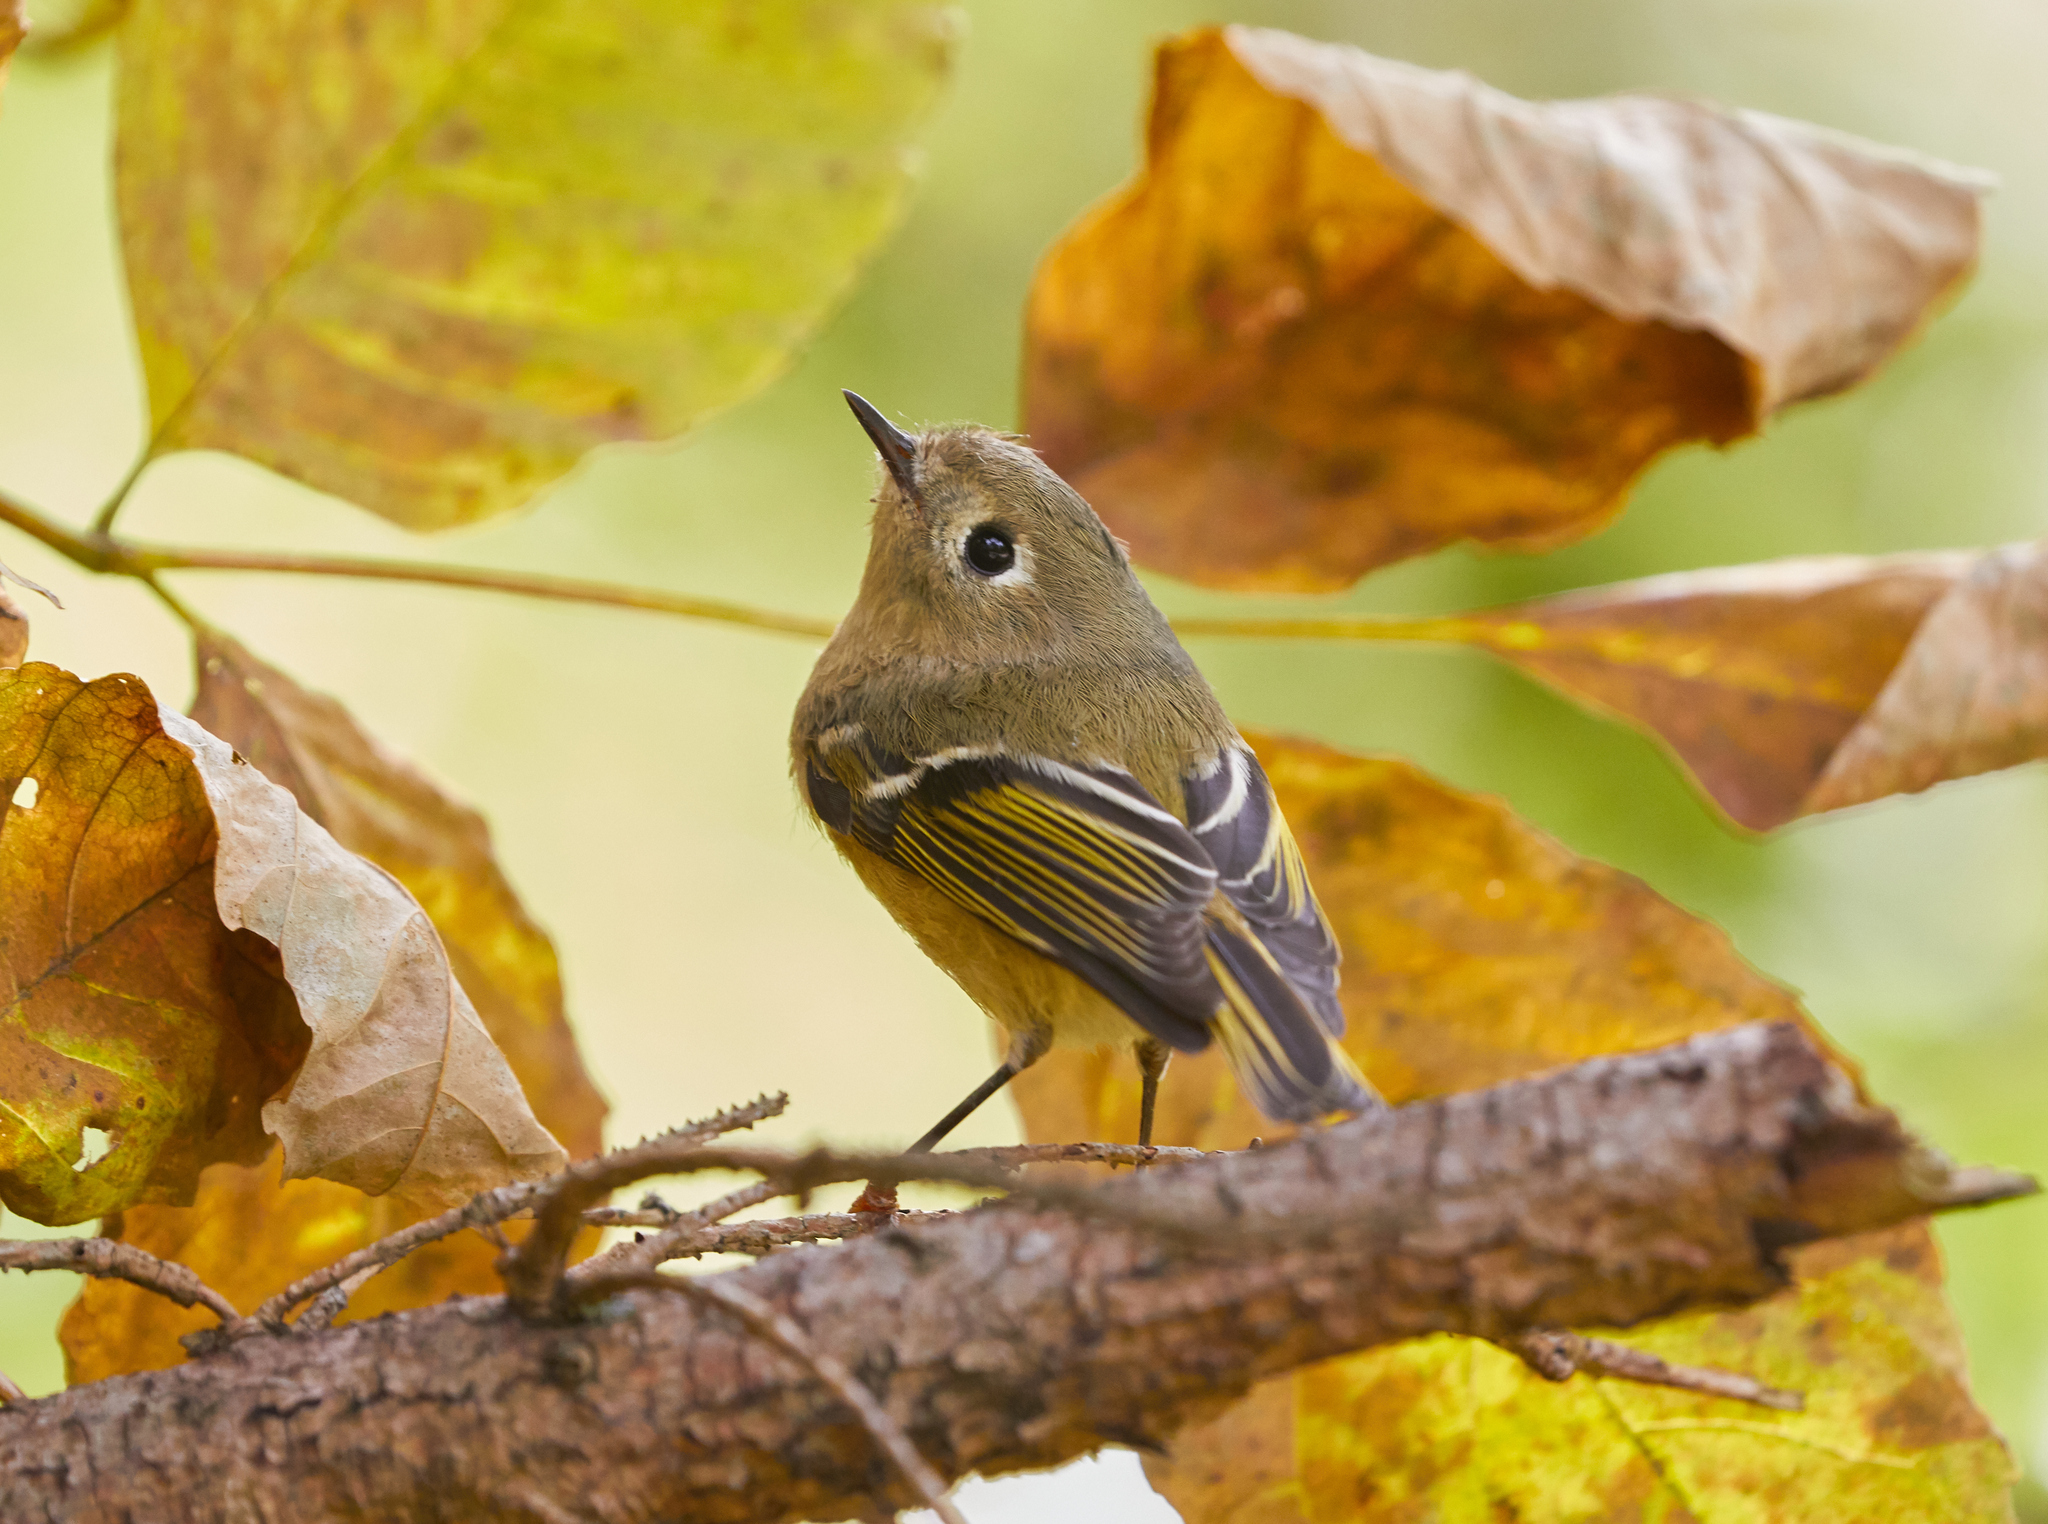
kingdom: Animalia
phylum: Chordata
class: Aves
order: Passeriformes
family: Regulidae
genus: Regulus
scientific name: Regulus calendula
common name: Ruby-crowned kinglet
